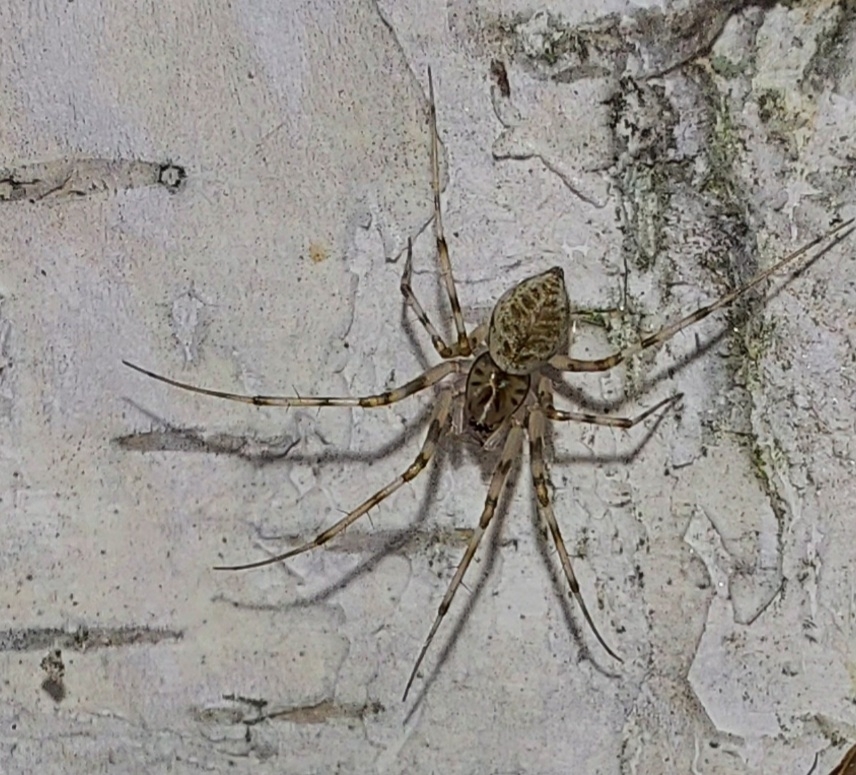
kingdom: Animalia
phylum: Arthropoda
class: Arachnida
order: Araneae
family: Linyphiidae
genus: Drapetisca
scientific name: Drapetisca socialis
